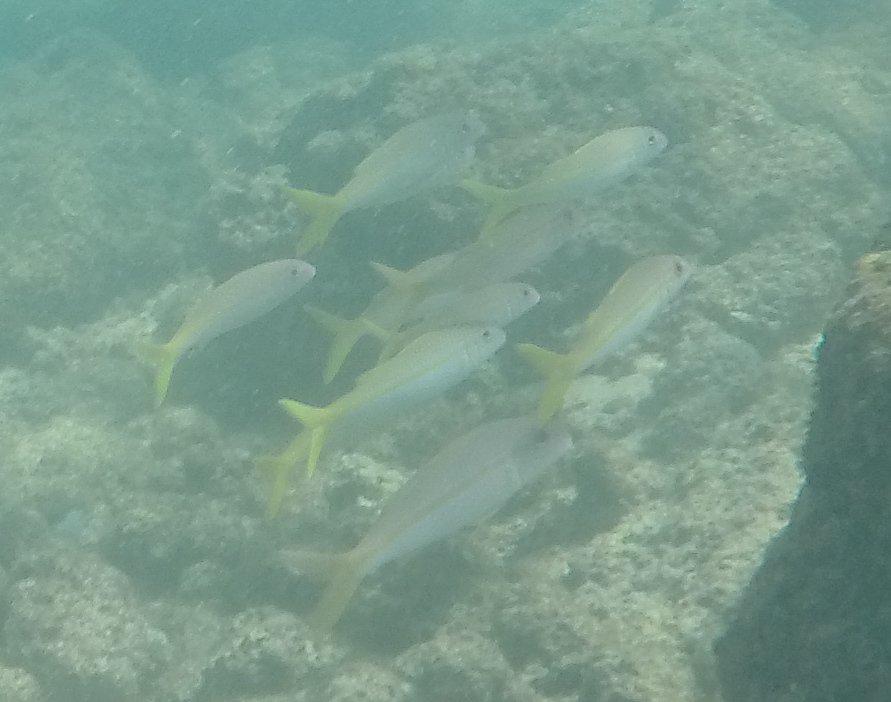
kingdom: Animalia
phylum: Chordata
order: Perciformes
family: Mullidae
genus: Mulloidichthys
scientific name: Mulloidichthys vanicolensis
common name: Yellowfin goatfish
